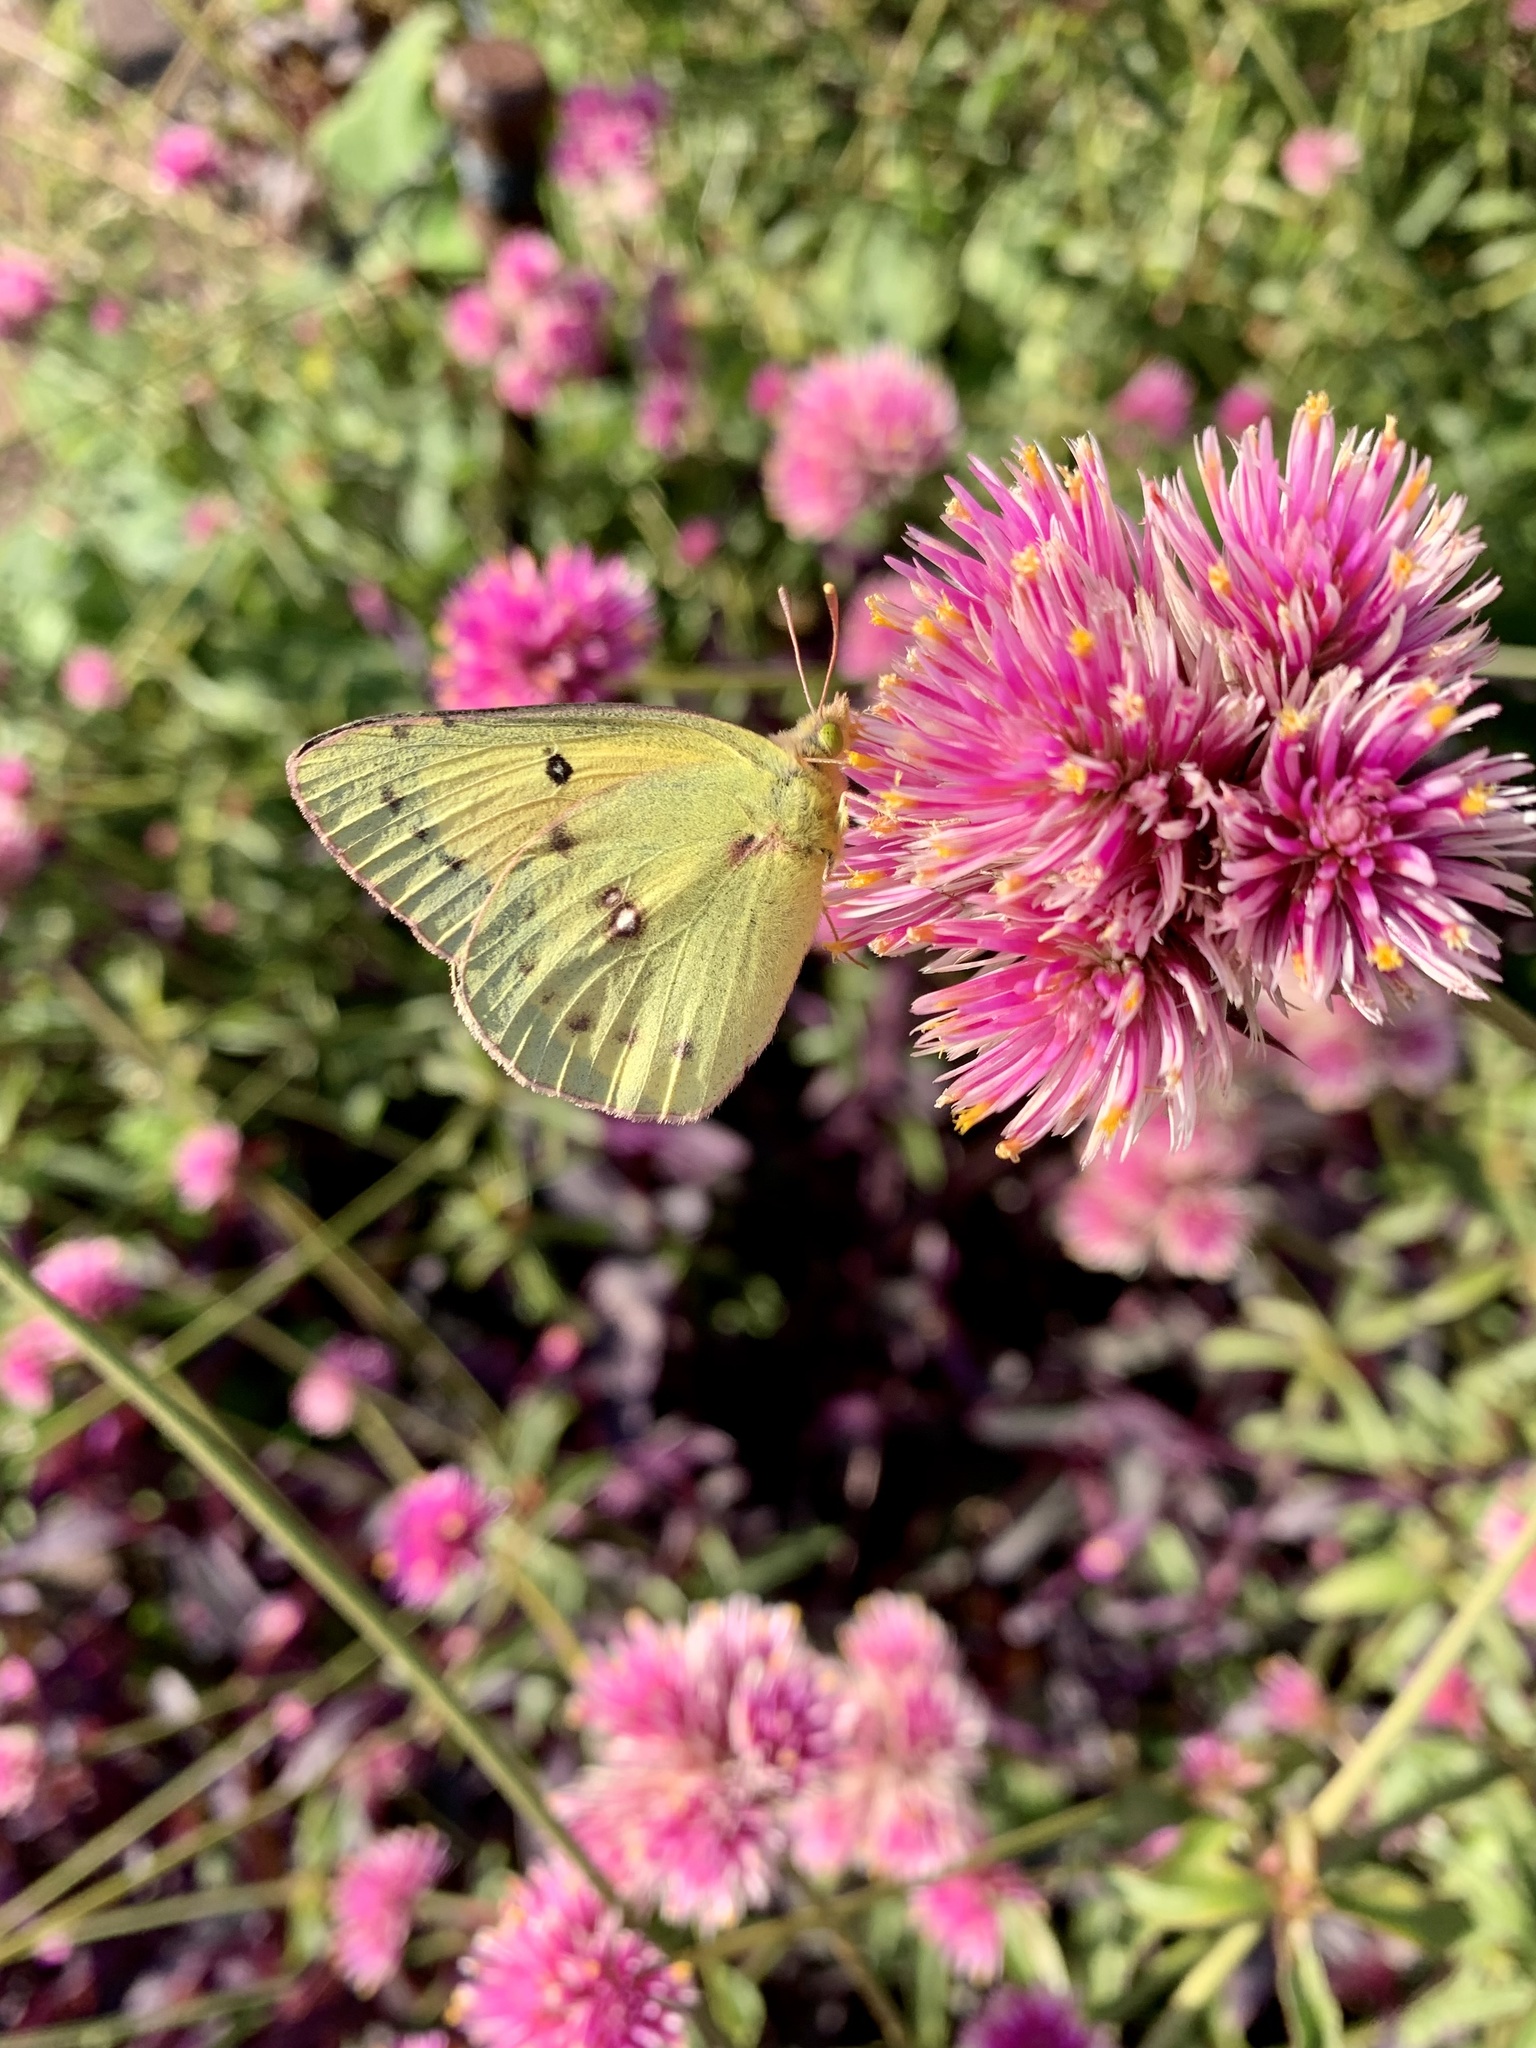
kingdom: Animalia
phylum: Arthropoda
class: Insecta
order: Lepidoptera
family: Pieridae
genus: Colias
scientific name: Colias eurytheme
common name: Alfalfa butterfly
